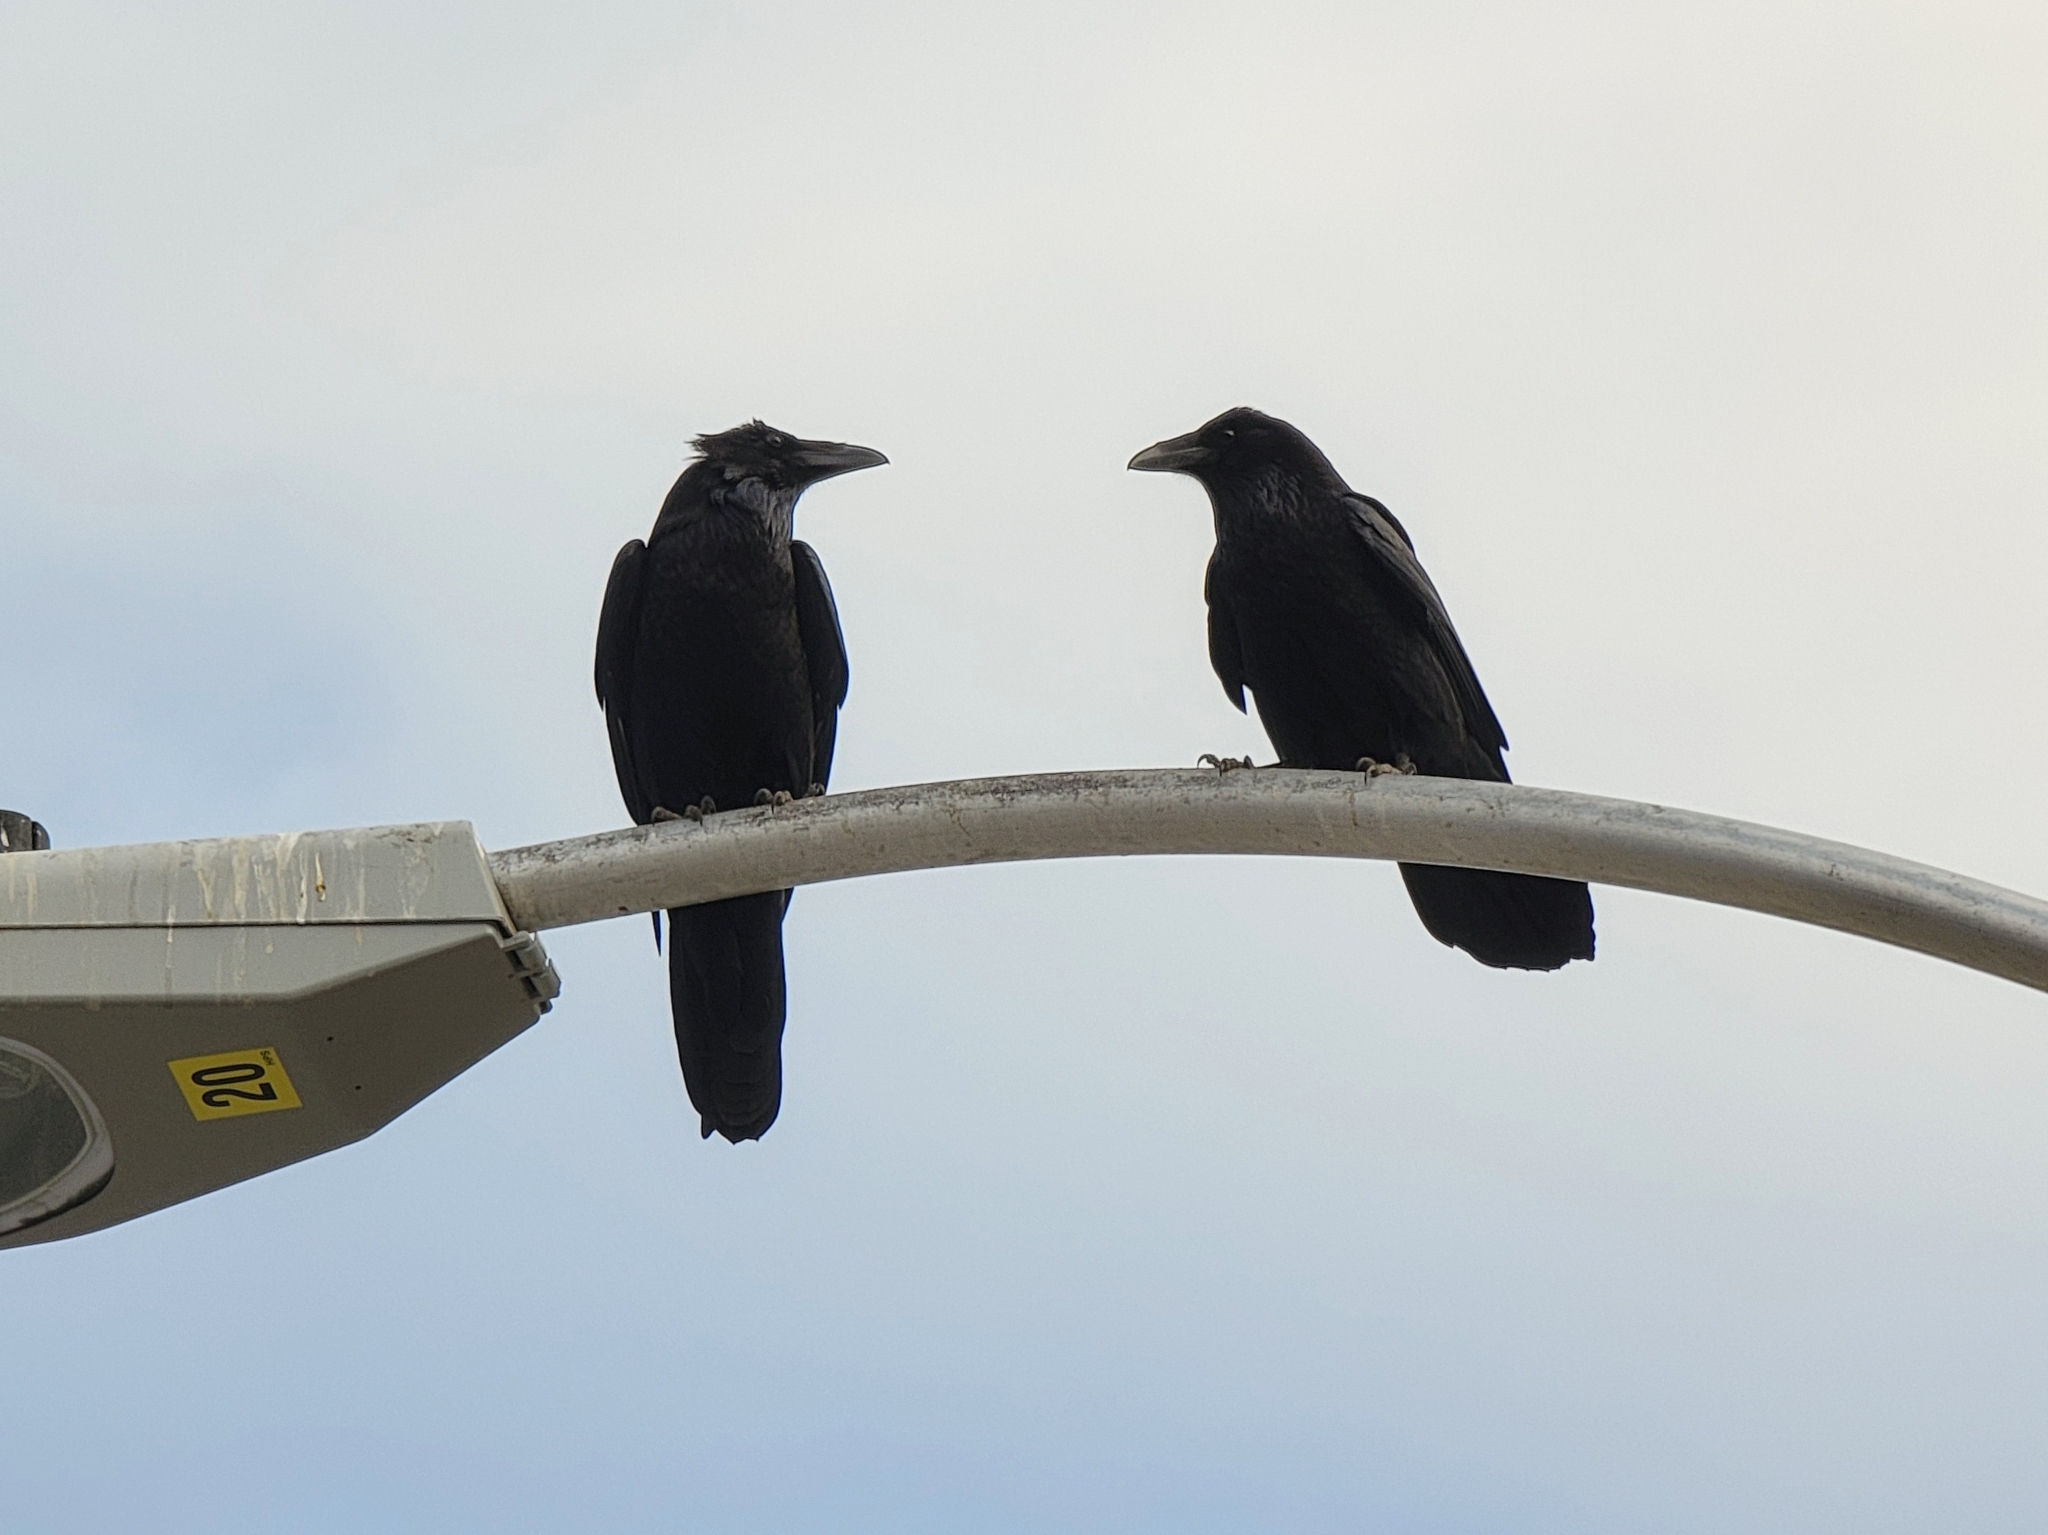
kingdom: Animalia
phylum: Chordata
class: Aves
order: Passeriformes
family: Corvidae
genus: Corvus
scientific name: Corvus corax
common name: Common raven
